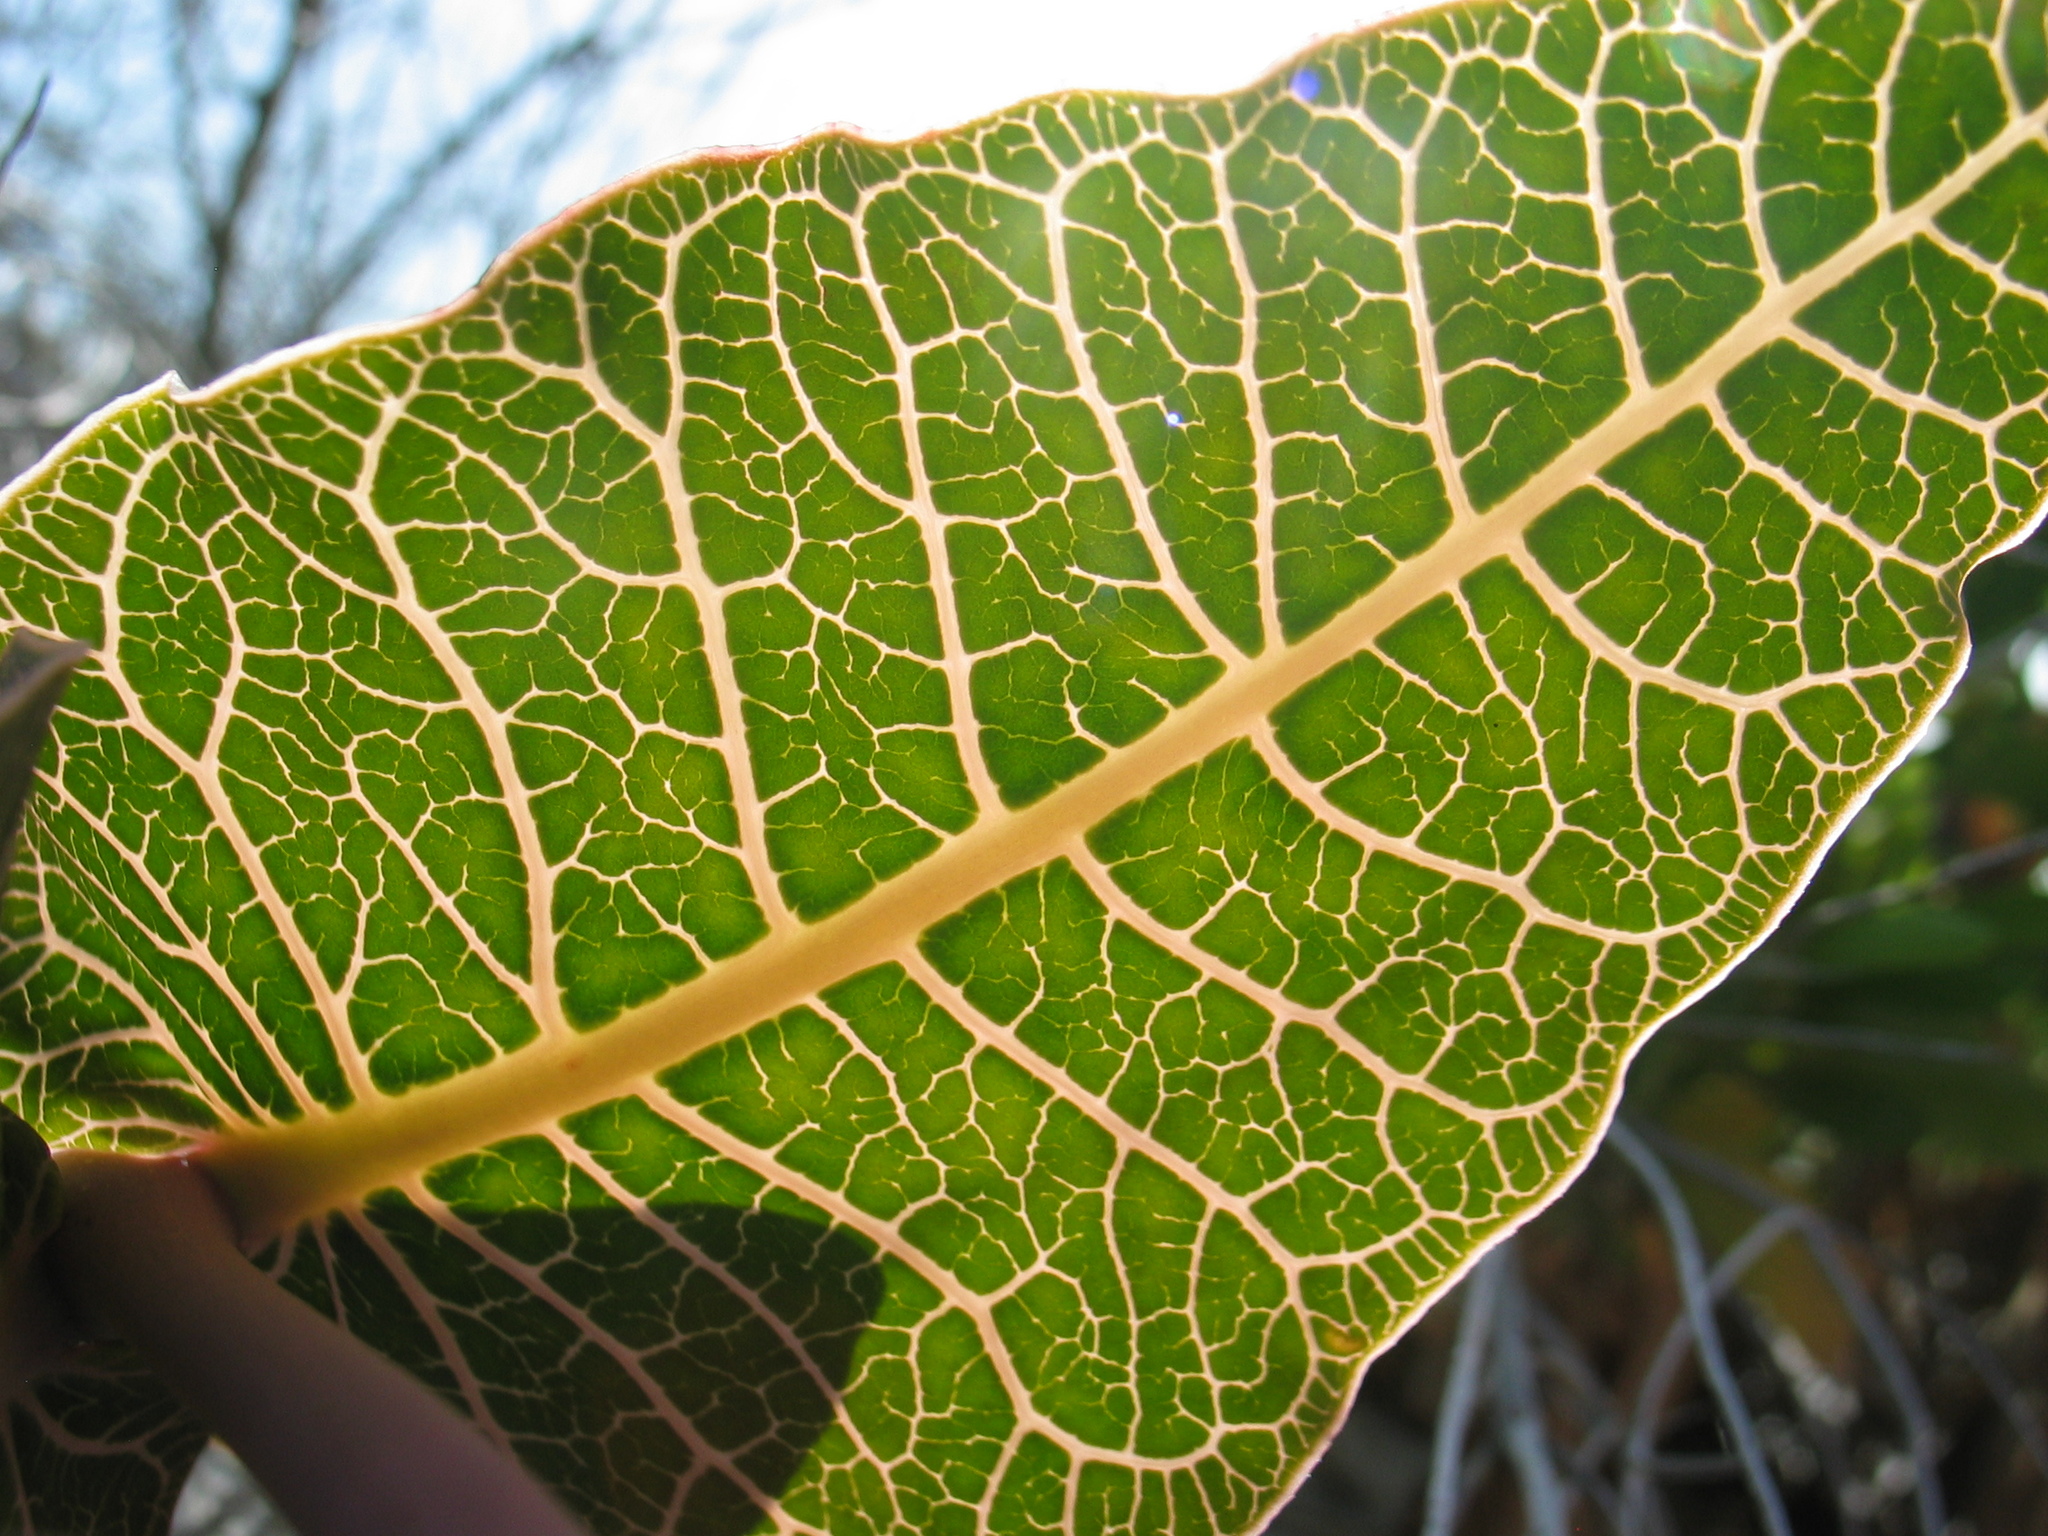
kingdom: Plantae
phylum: Tracheophyta
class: Magnoliopsida
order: Gentianales
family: Apocynaceae
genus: Asclepias
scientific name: Asclepias humistrata
